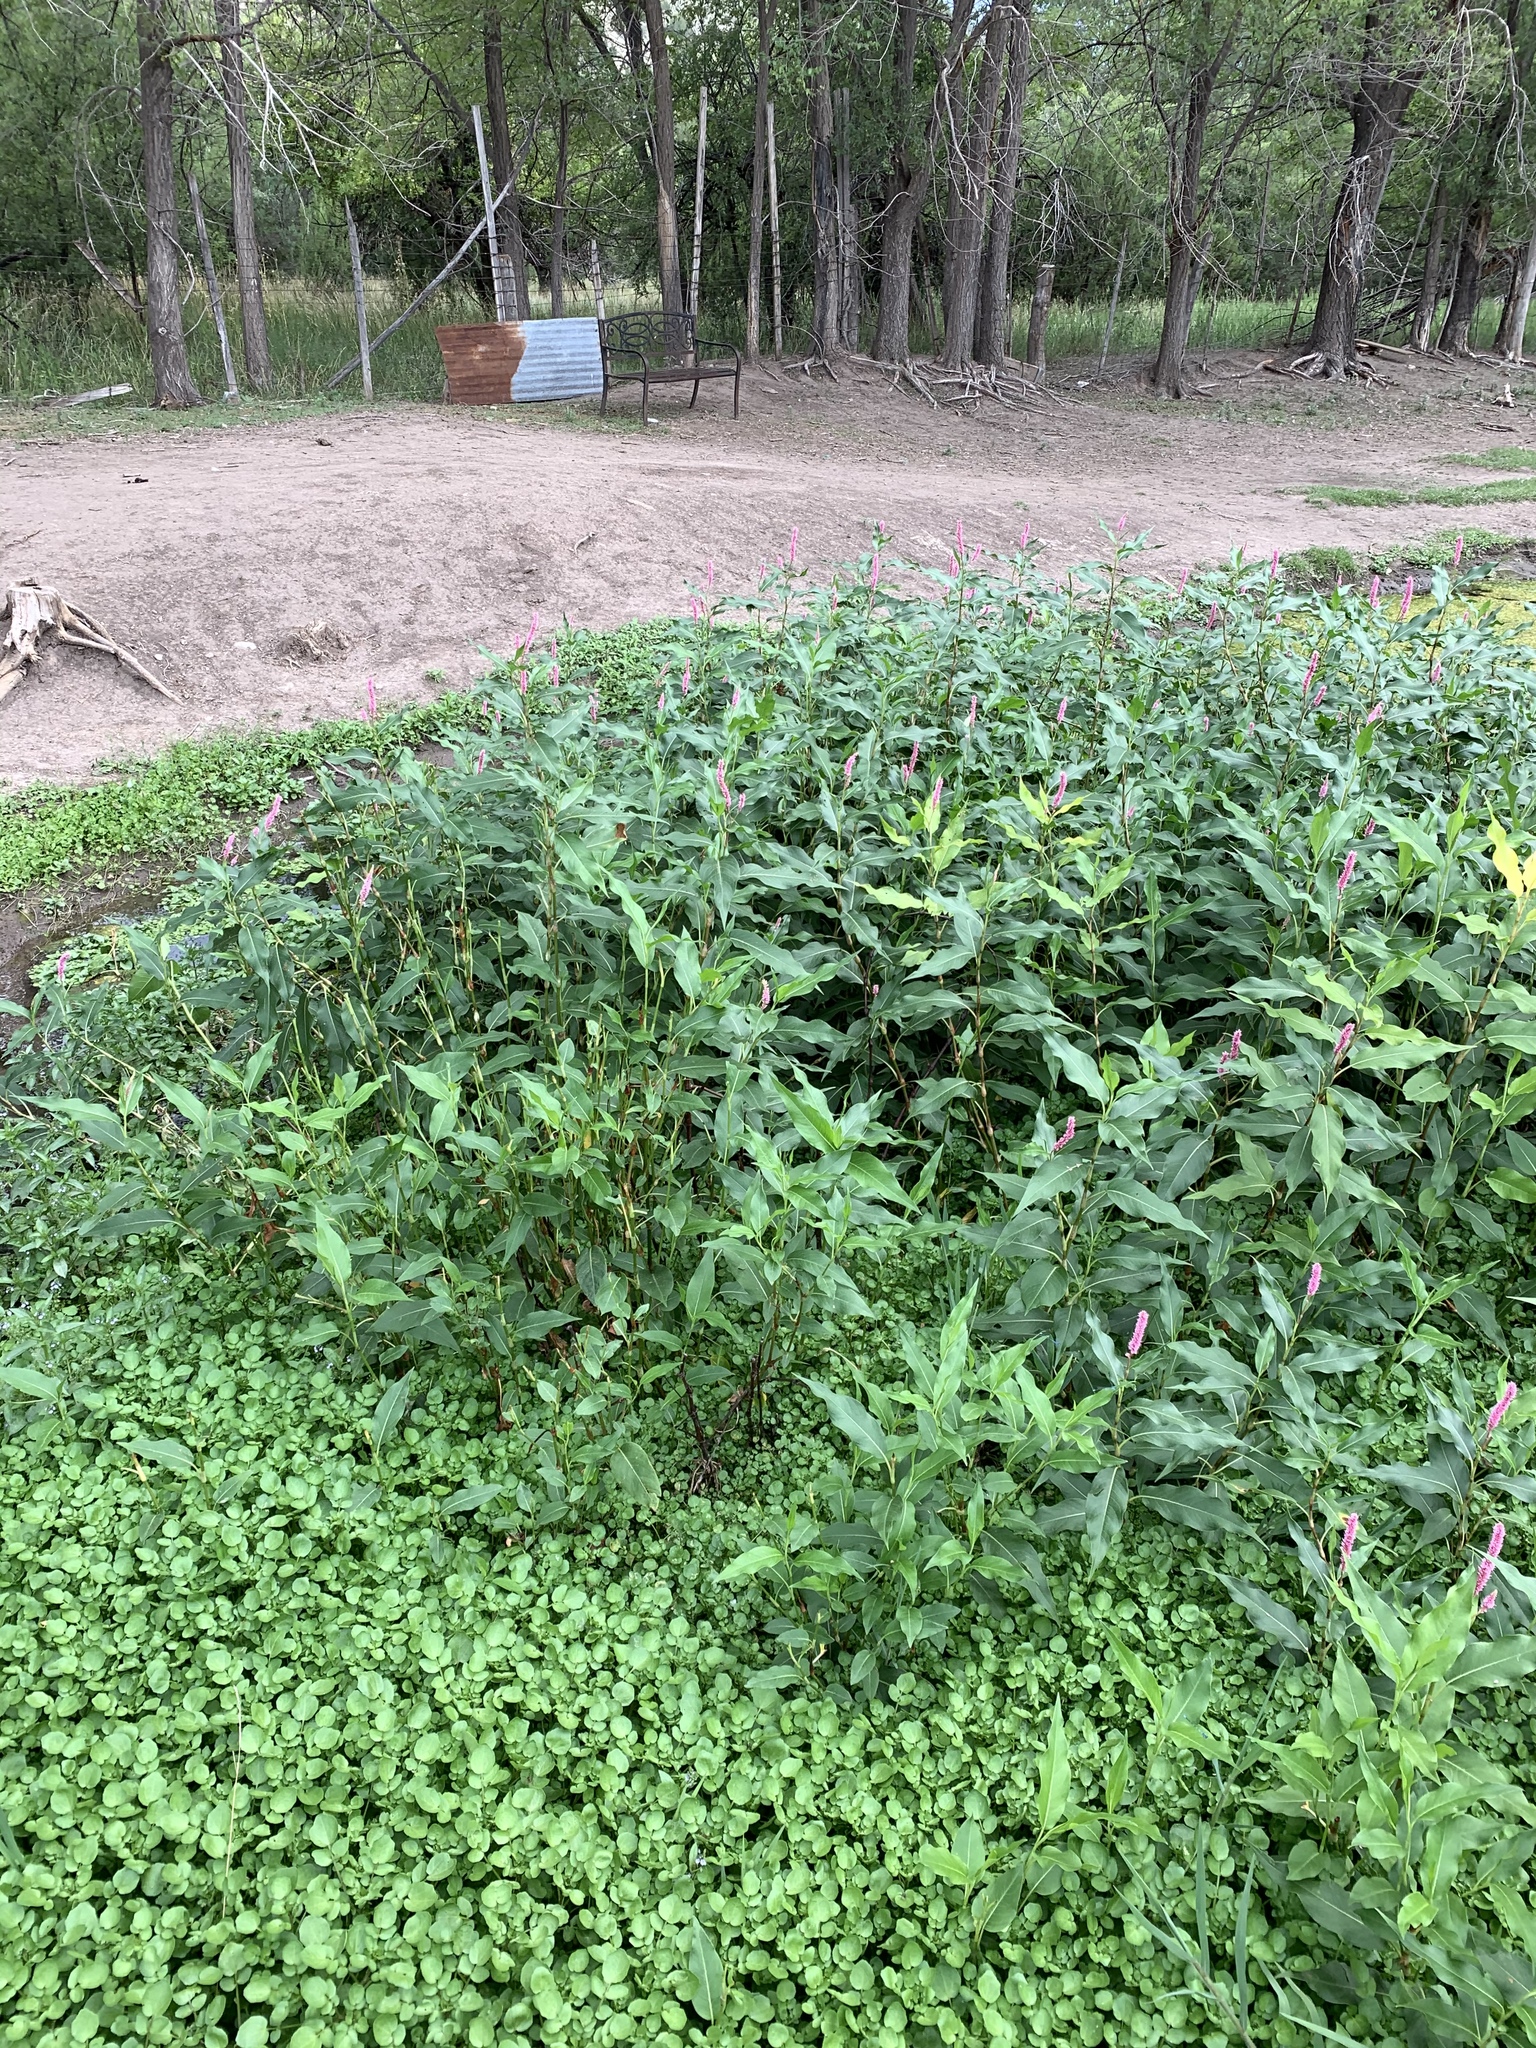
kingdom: Plantae
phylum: Tracheophyta
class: Magnoliopsida
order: Caryophyllales
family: Polygonaceae
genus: Persicaria
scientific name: Persicaria amphibia
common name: Amphibious bistort
